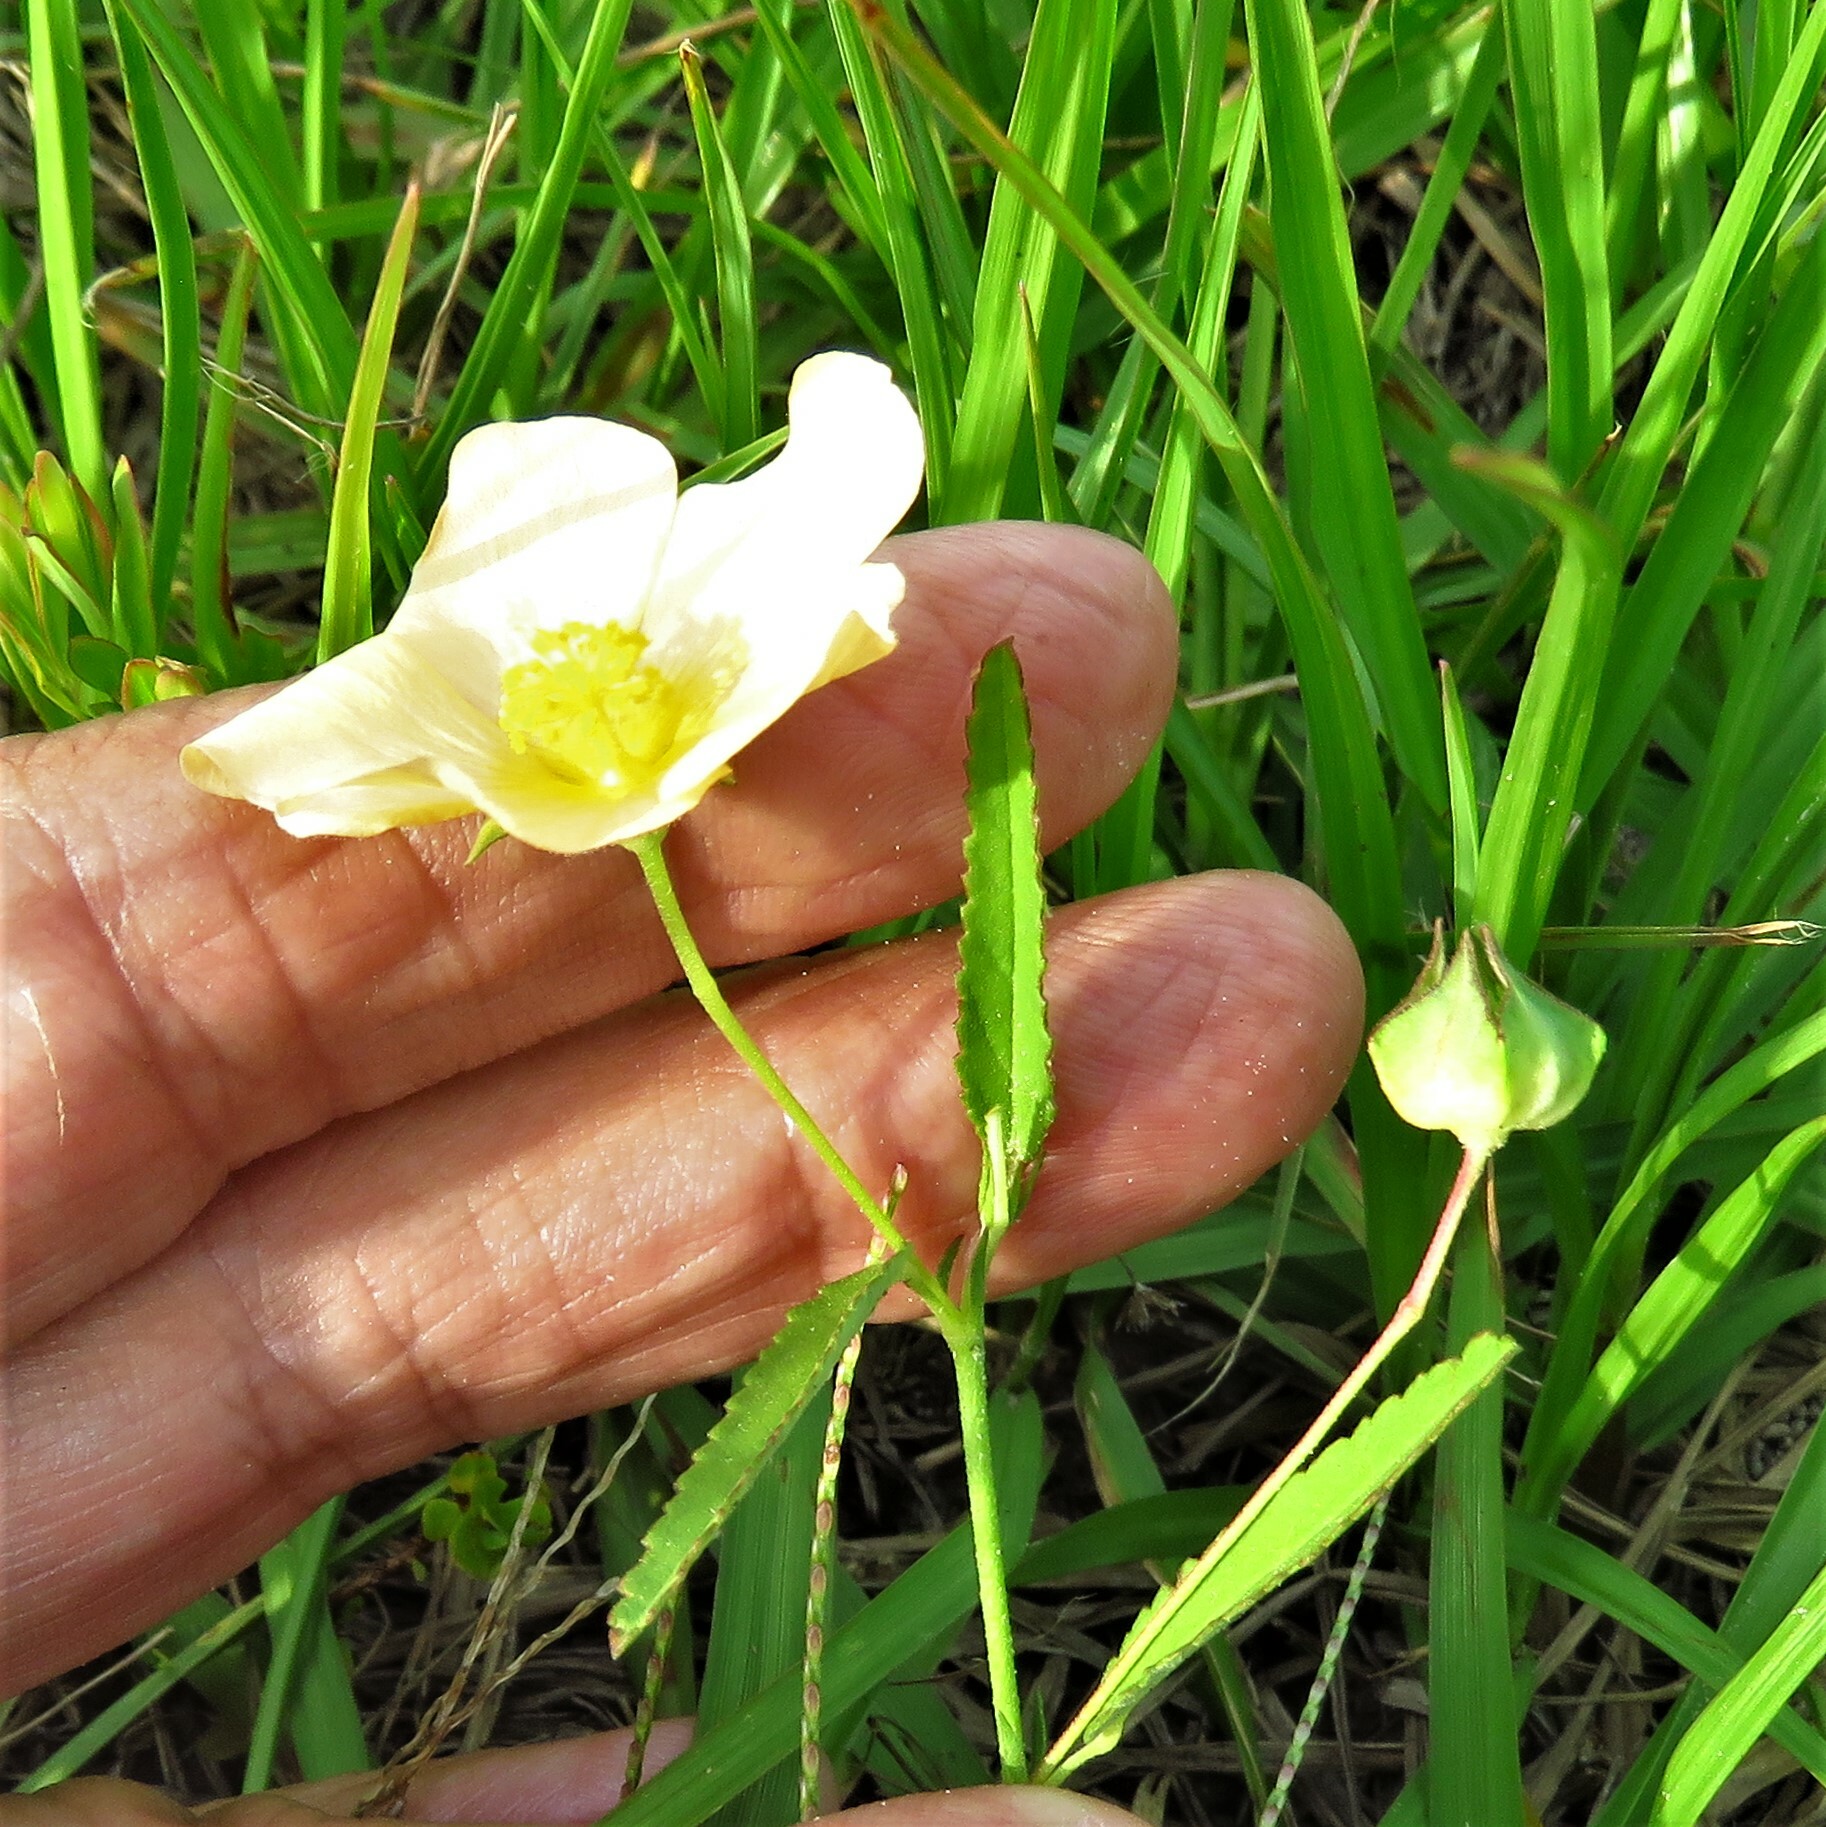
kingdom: Plantae
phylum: Tracheophyta
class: Magnoliopsida
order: Malvales
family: Malvaceae
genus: Sida
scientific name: Sida abutilifolia
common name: Spreading fanpetals
